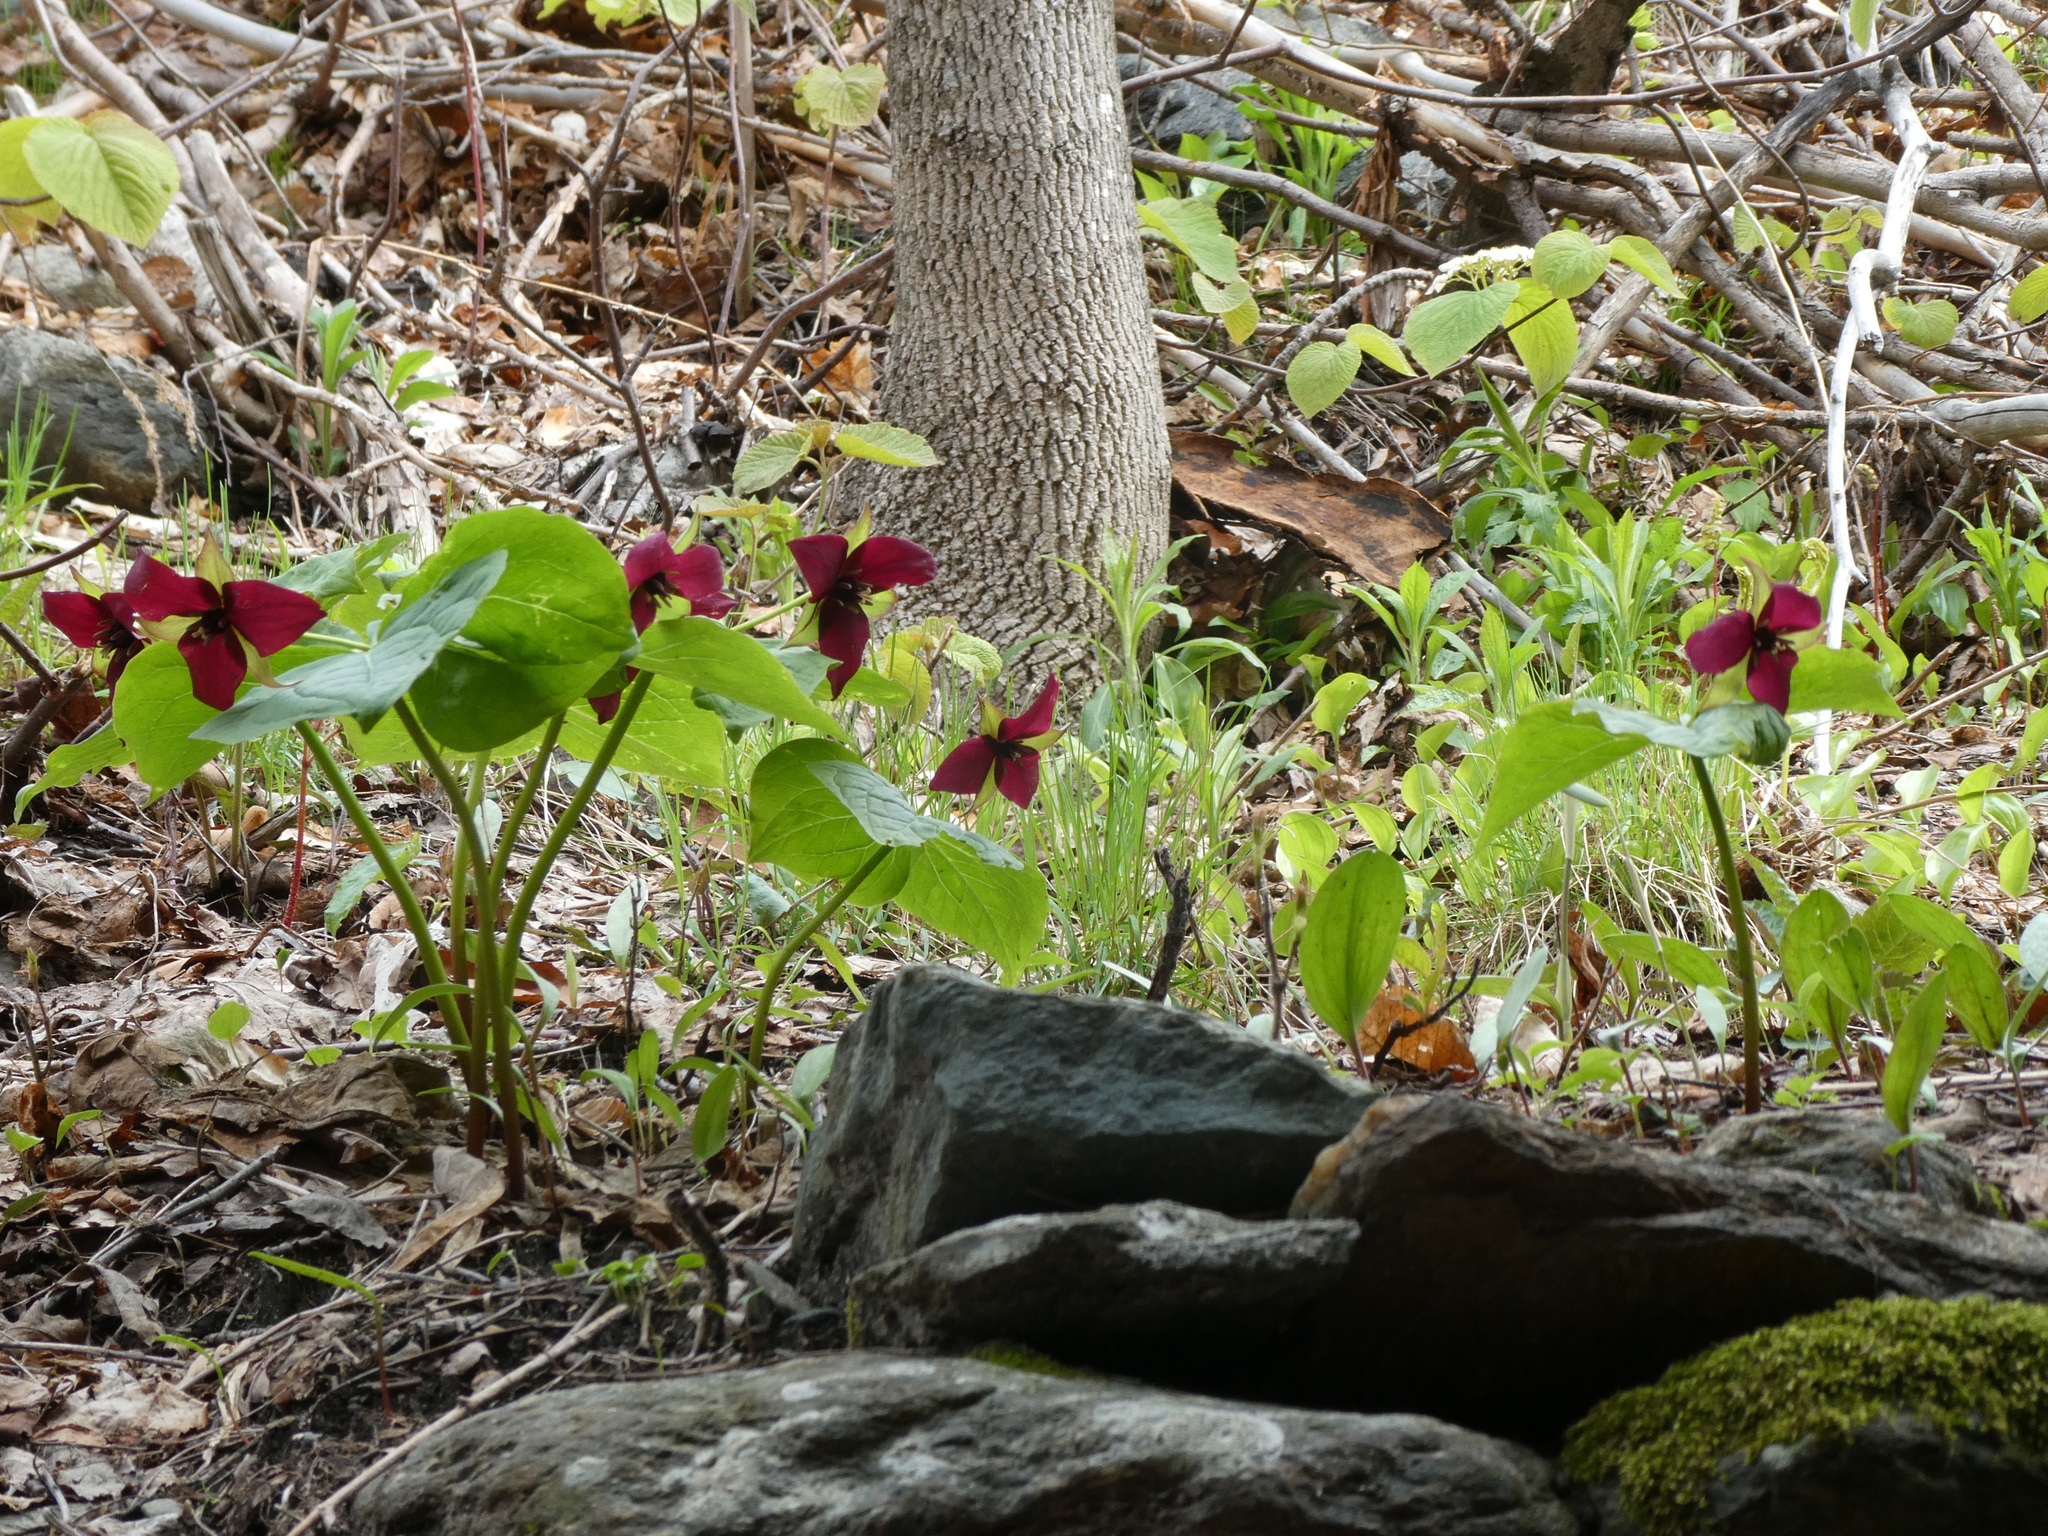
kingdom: Plantae
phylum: Tracheophyta
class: Liliopsida
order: Liliales
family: Melanthiaceae
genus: Trillium
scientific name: Trillium erectum
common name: Purple trillium
